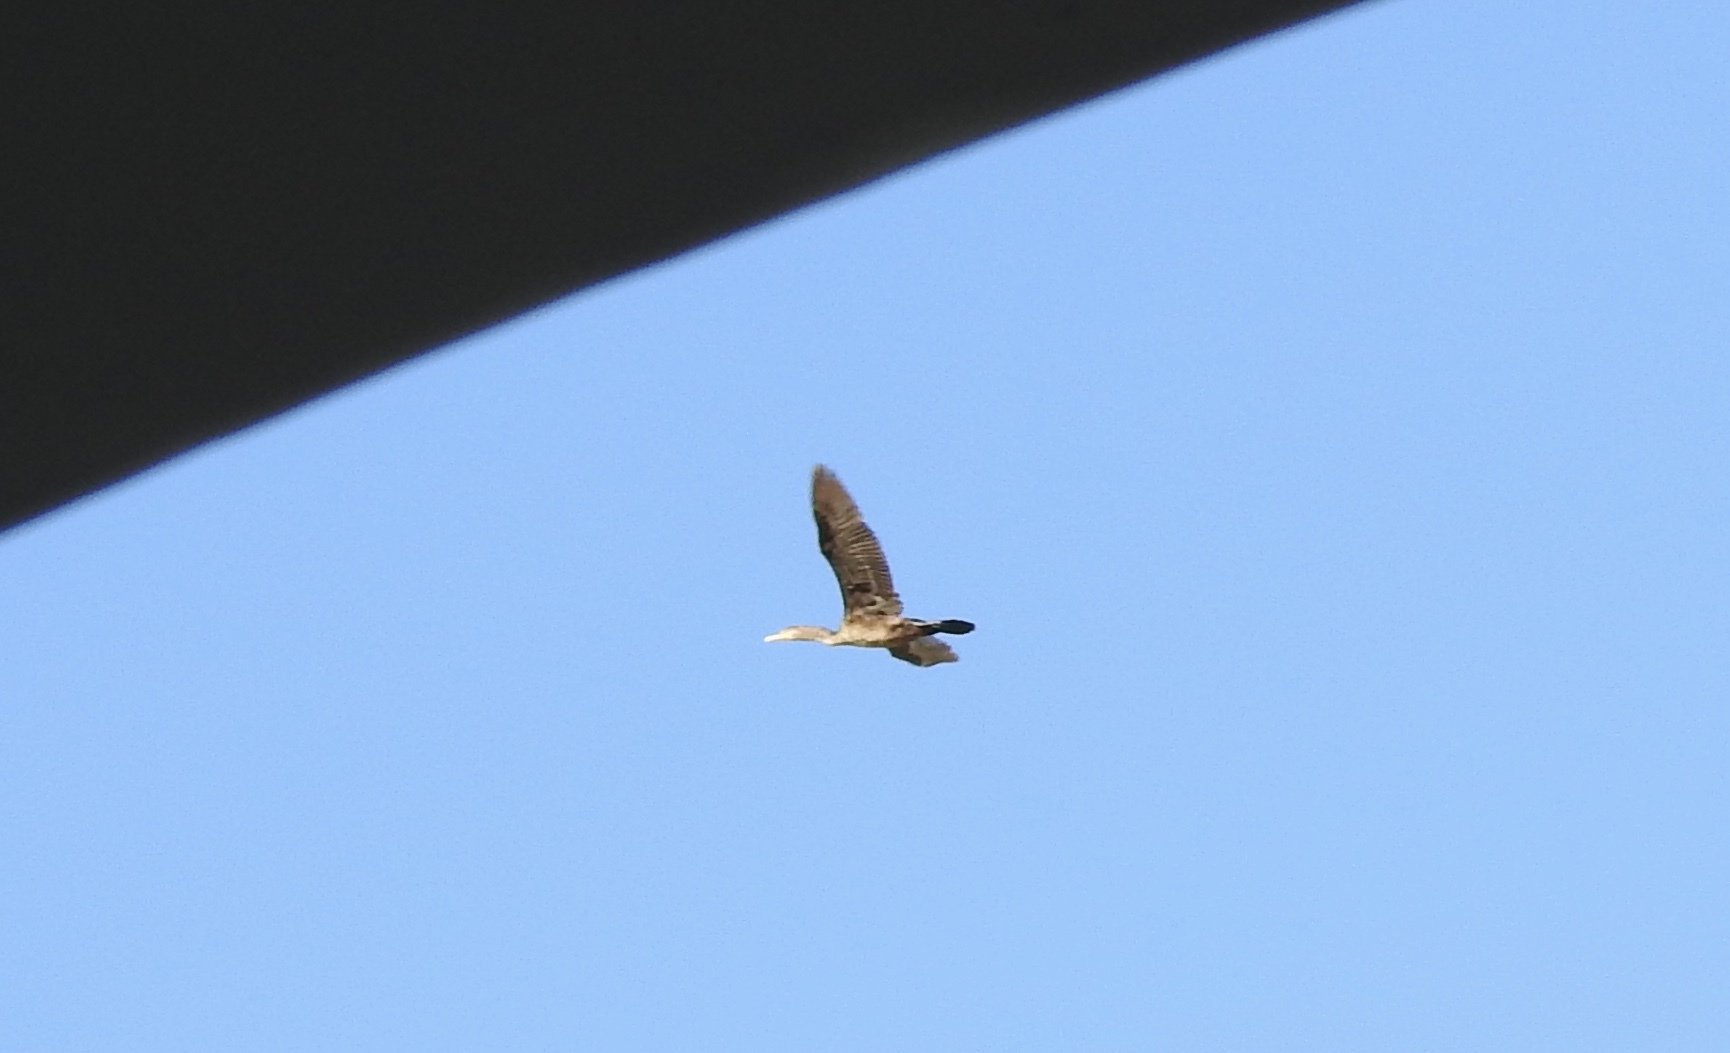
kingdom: Animalia
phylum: Chordata
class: Aves
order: Suliformes
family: Phalacrocoracidae
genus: Phalacrocorax
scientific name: Phalacrocorax auritus
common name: Double-crested cormorant
